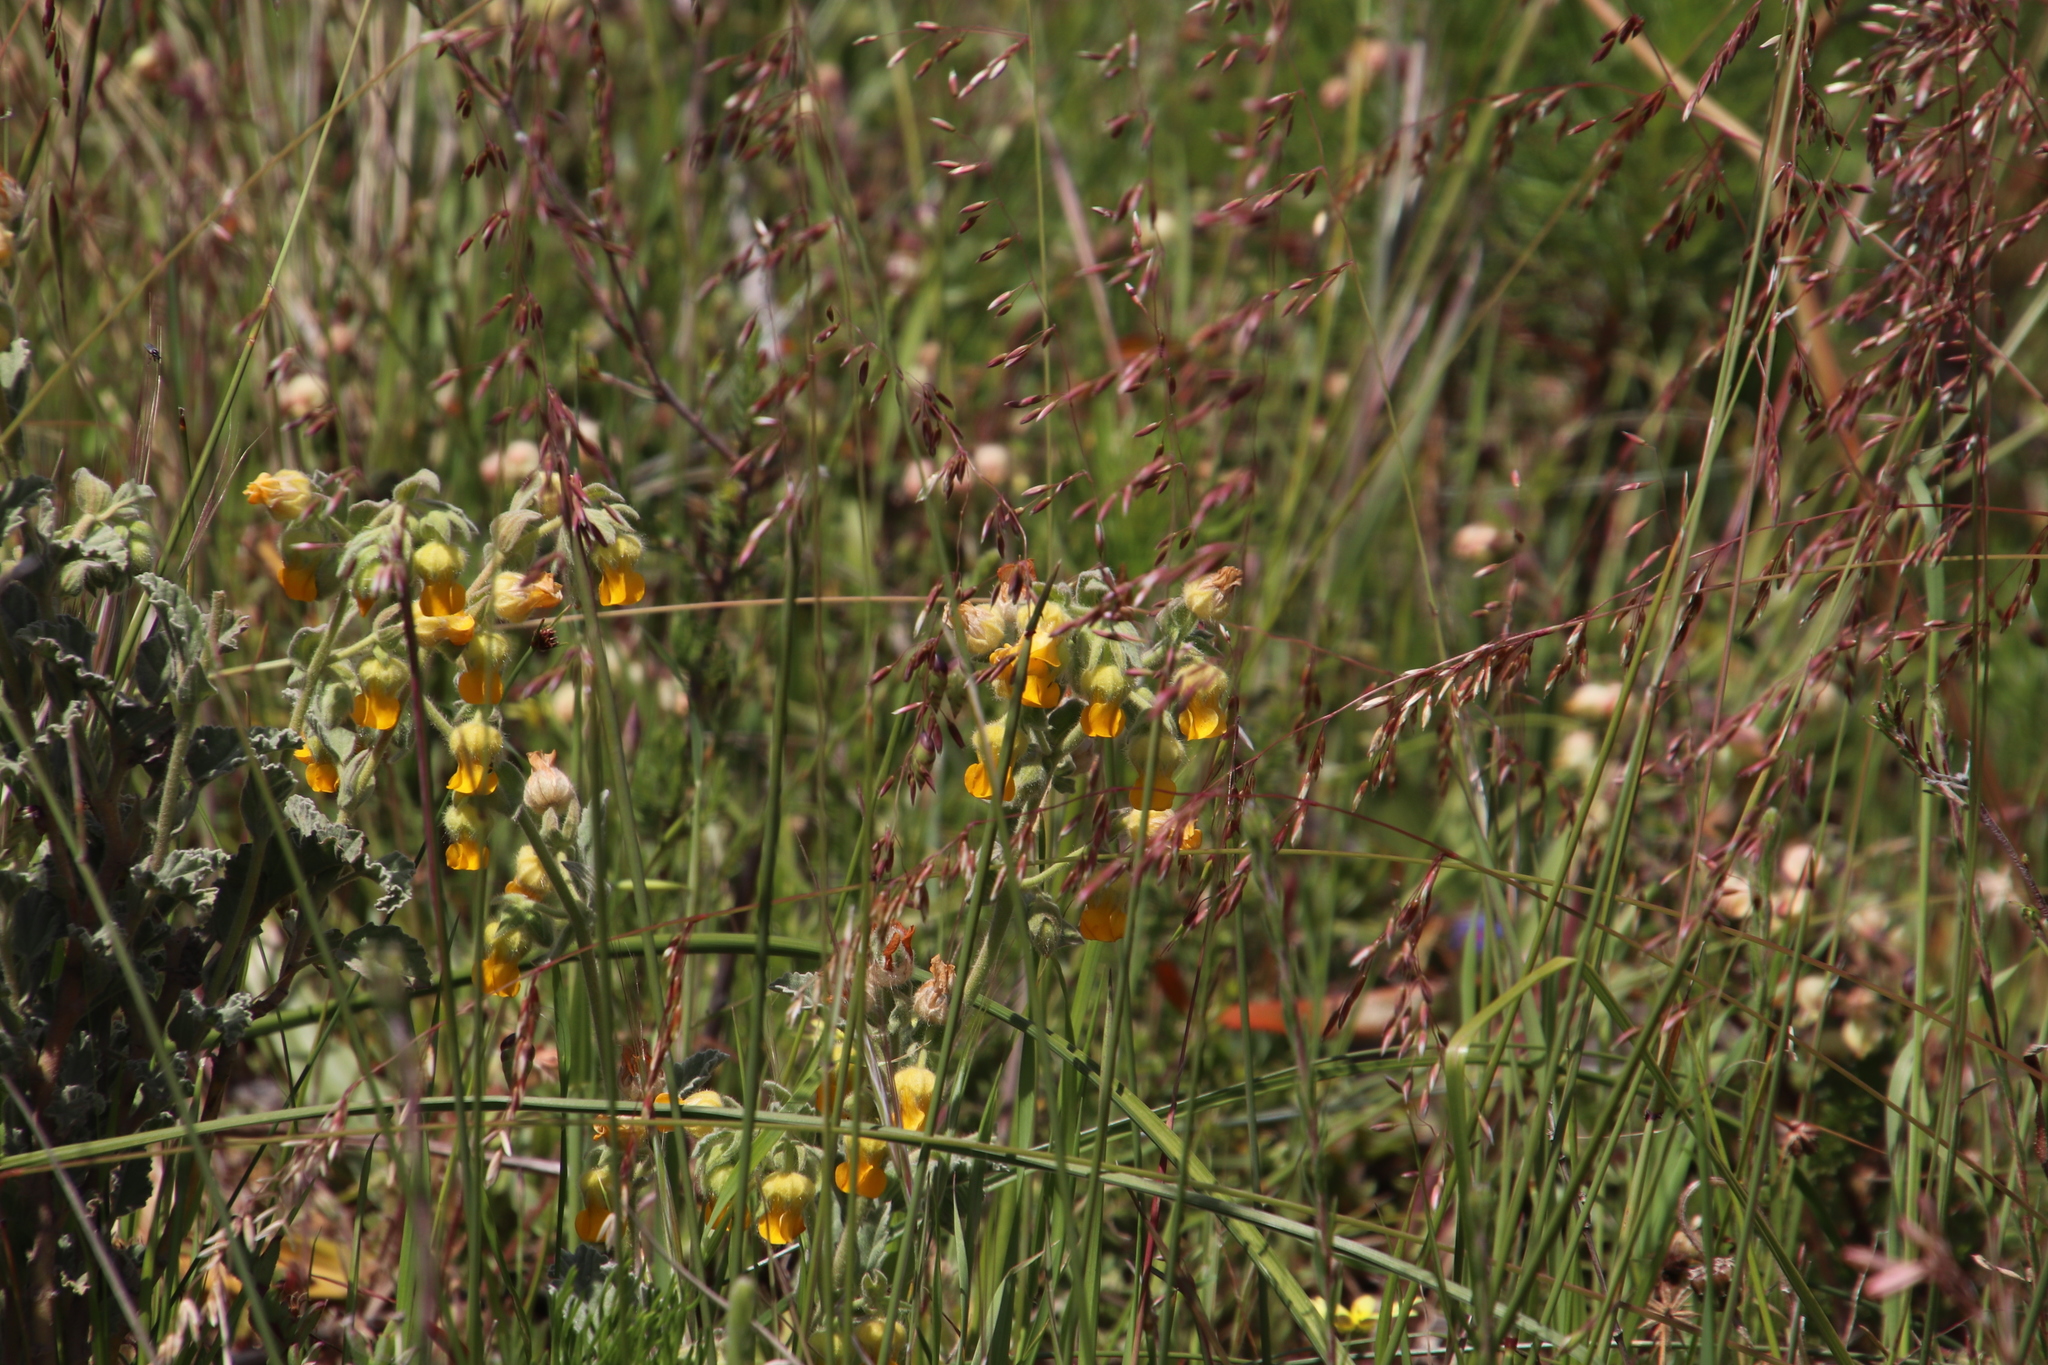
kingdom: Plantae
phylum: Tracheophyta
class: Magnoliopsida
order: Malvales
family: Malvaceae
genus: Hermannia
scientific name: Hermannia althaeifolia
